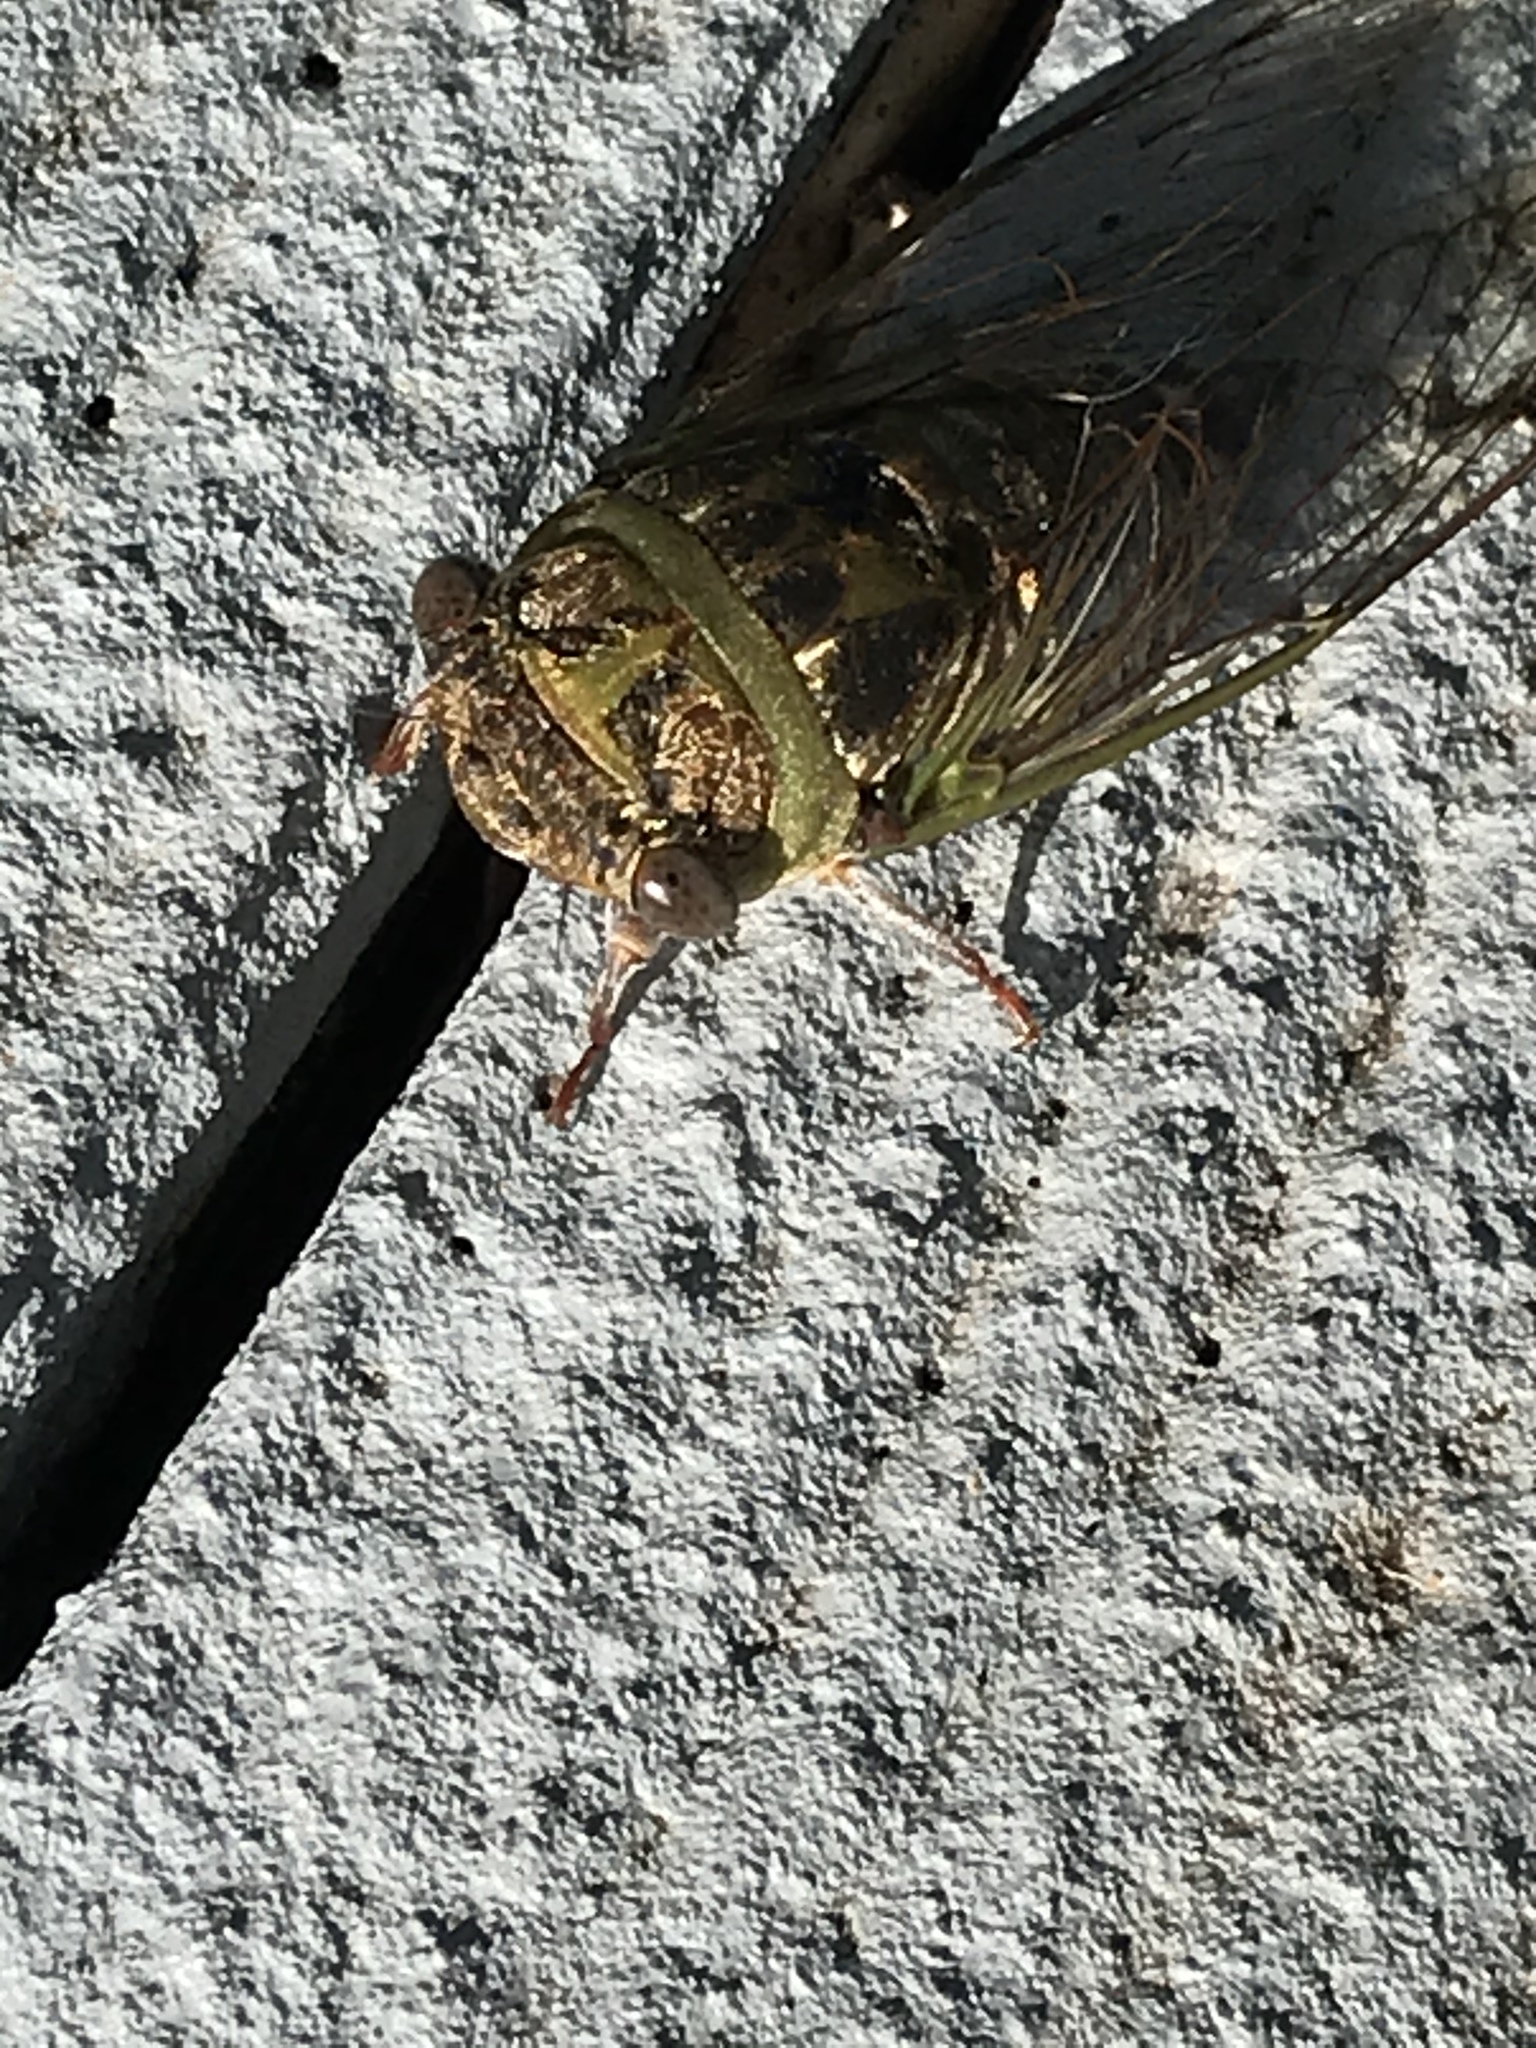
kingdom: Animalia
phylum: Arthropoda
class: Insecta
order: Hemiptera
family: Cicadidae
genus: Neotibicen
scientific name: Neotibicen davisi
